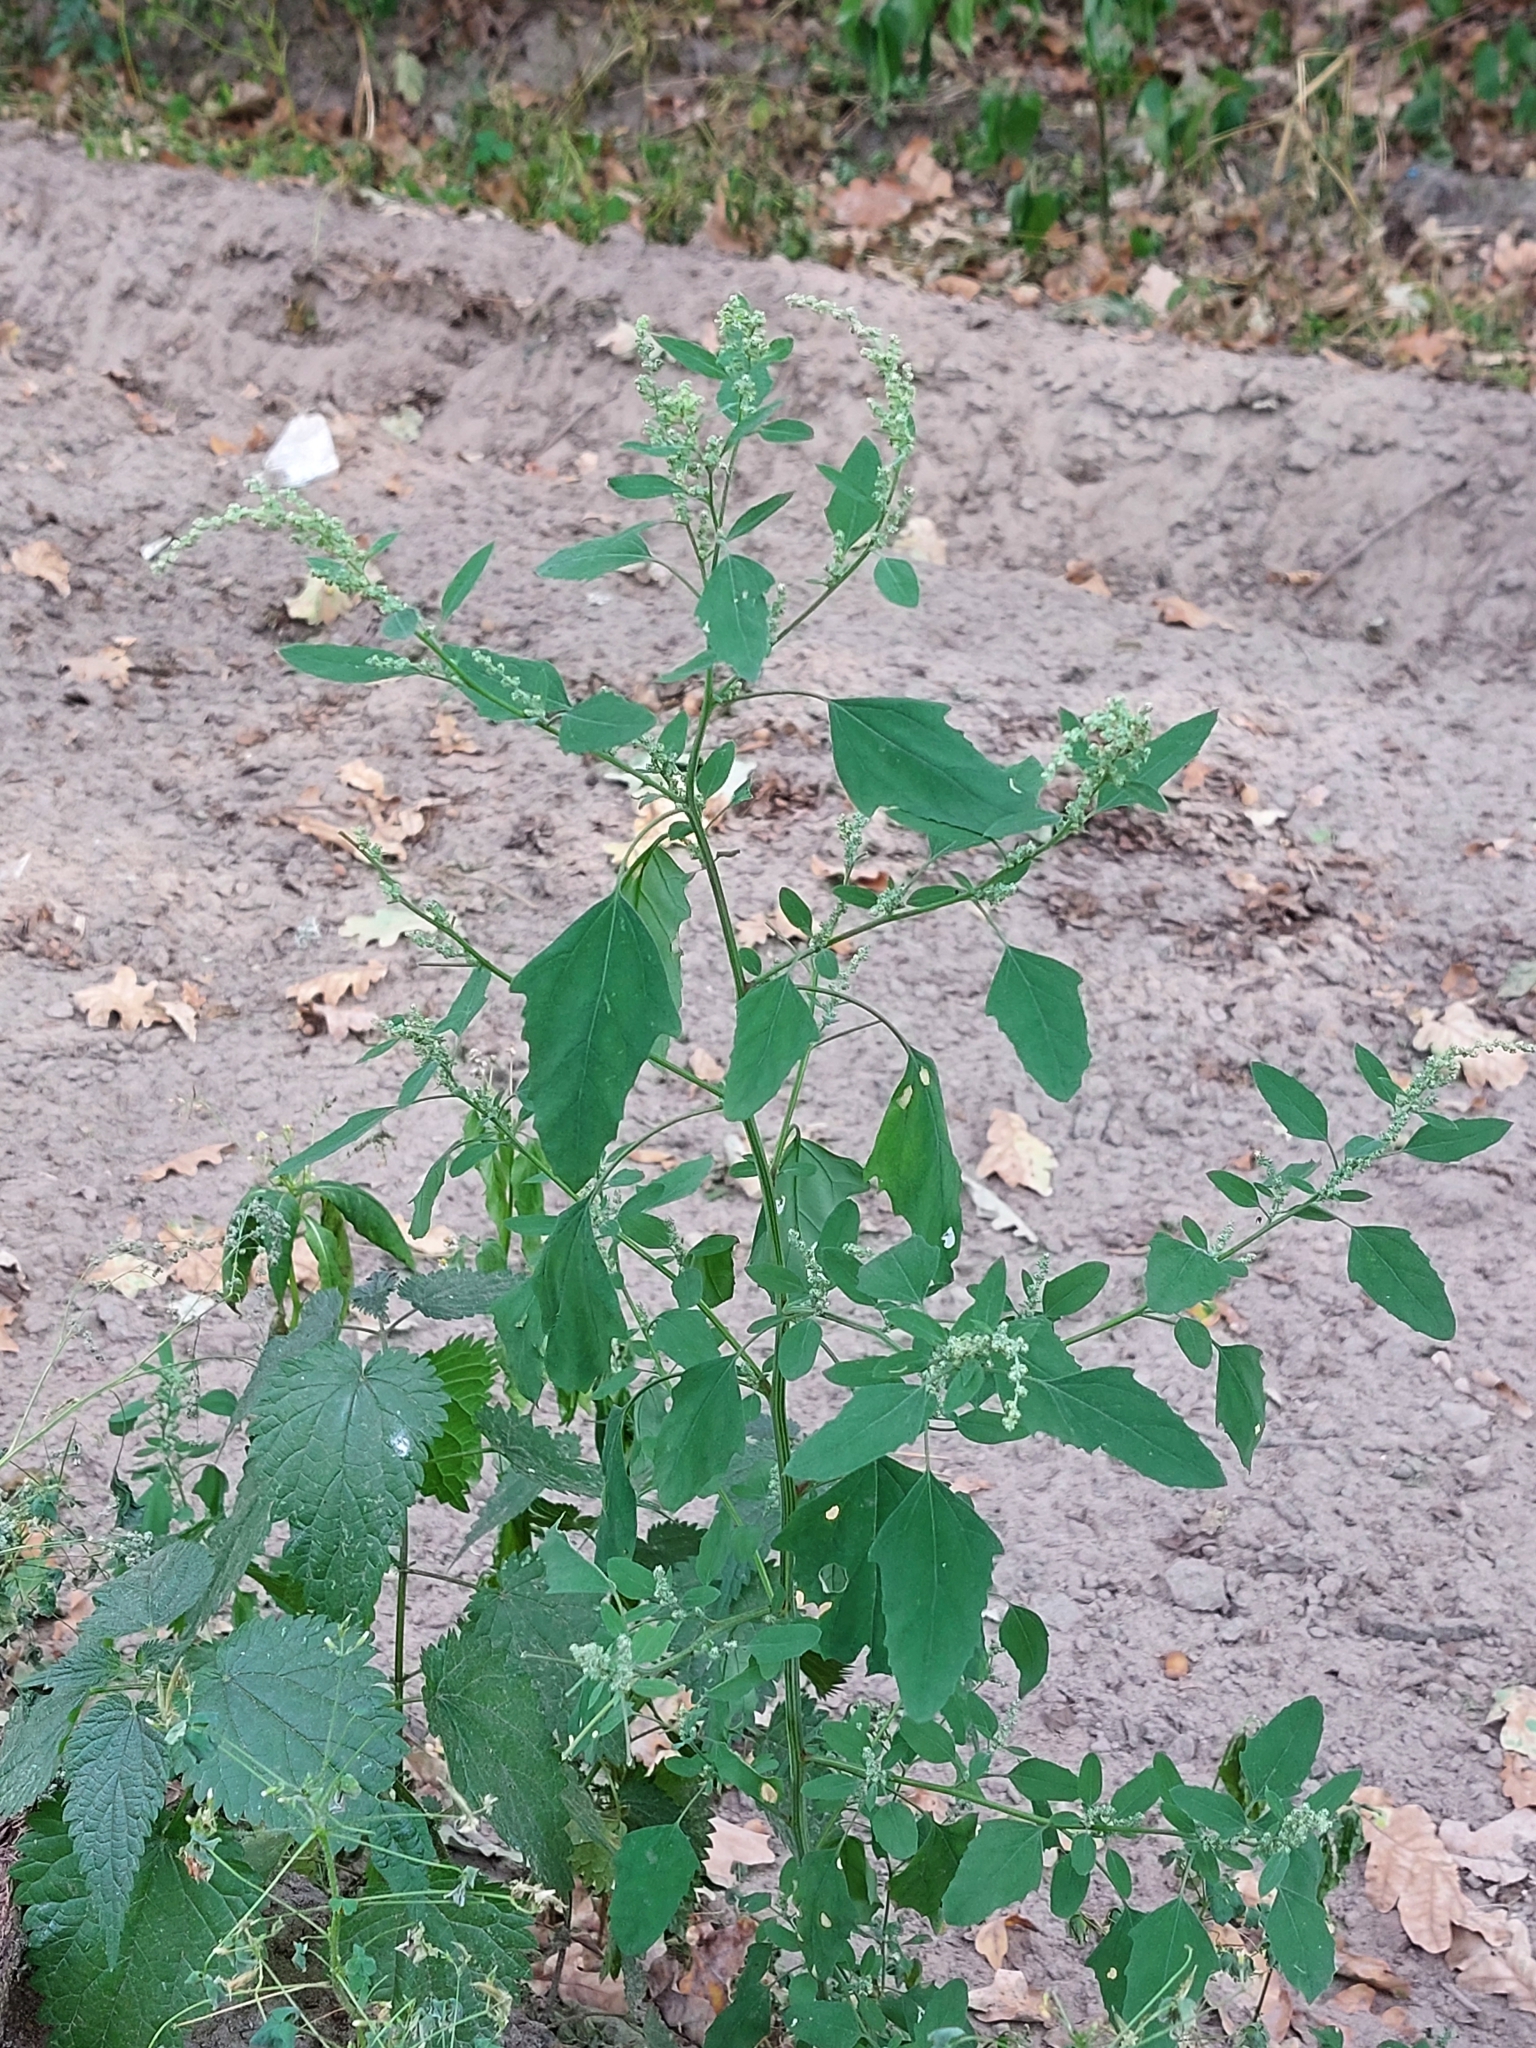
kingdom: Plantae
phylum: Tracheophyta
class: Magnoliopsida
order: Caryophyllales
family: Amaranthaceae
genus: Chenopodium
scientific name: Chenopodium album
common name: Fat-hen
